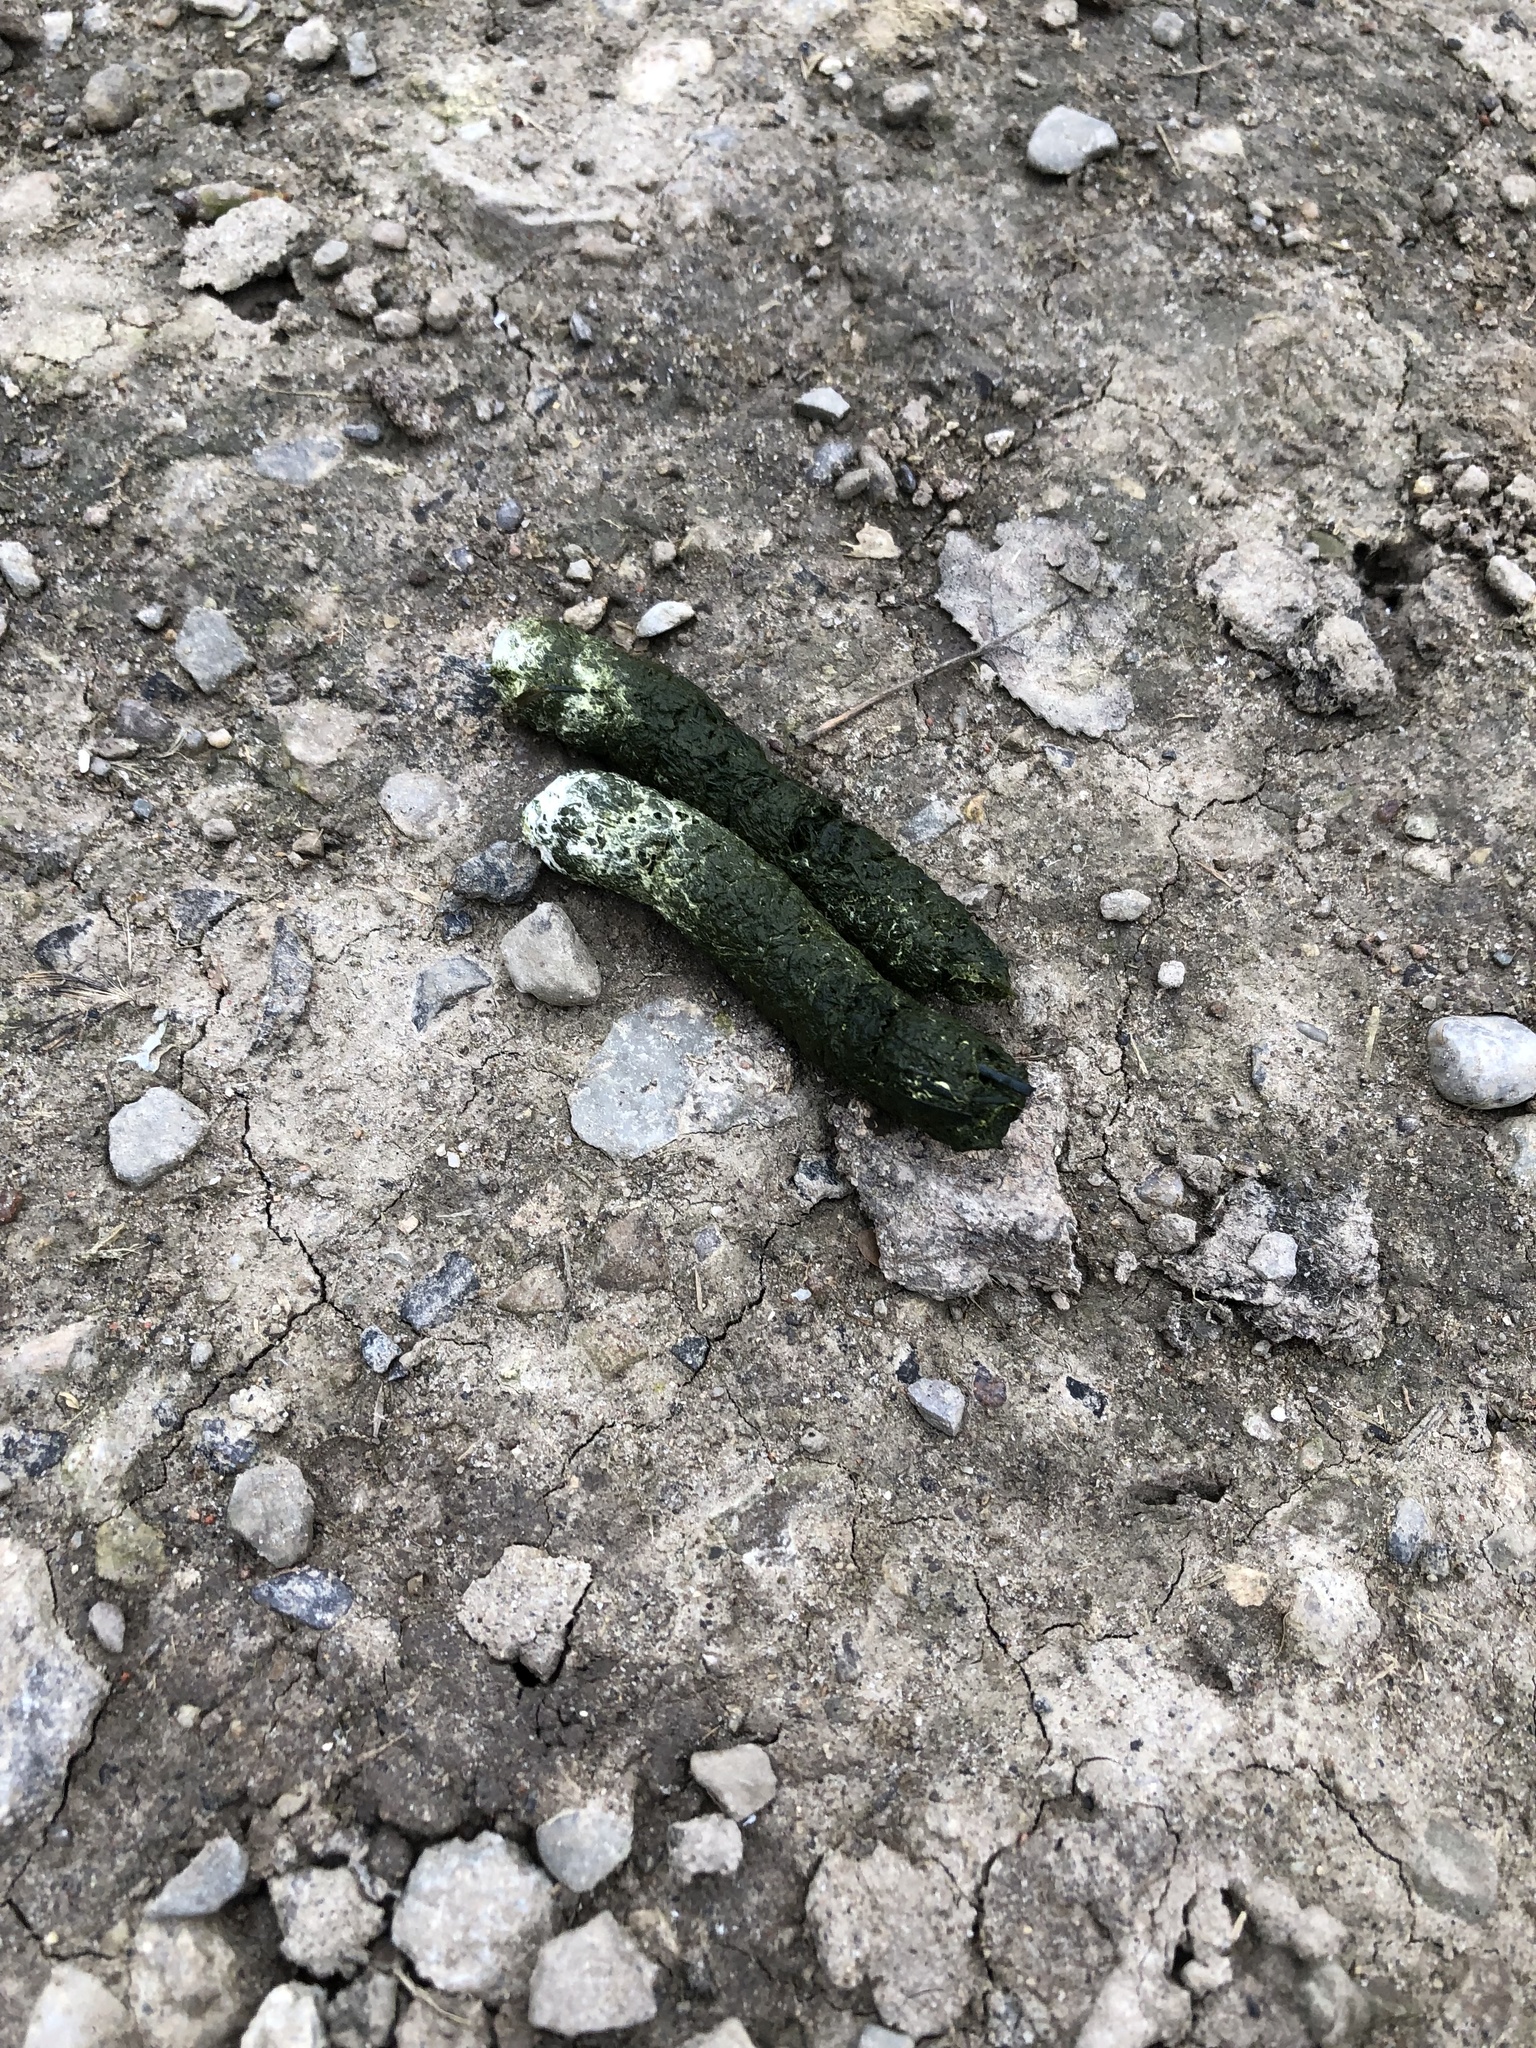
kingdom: Animalia
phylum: Chordata
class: Aves
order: Anseriformes
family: Anatidae
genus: Branta
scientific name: Branta canadensis
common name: Canada goose
